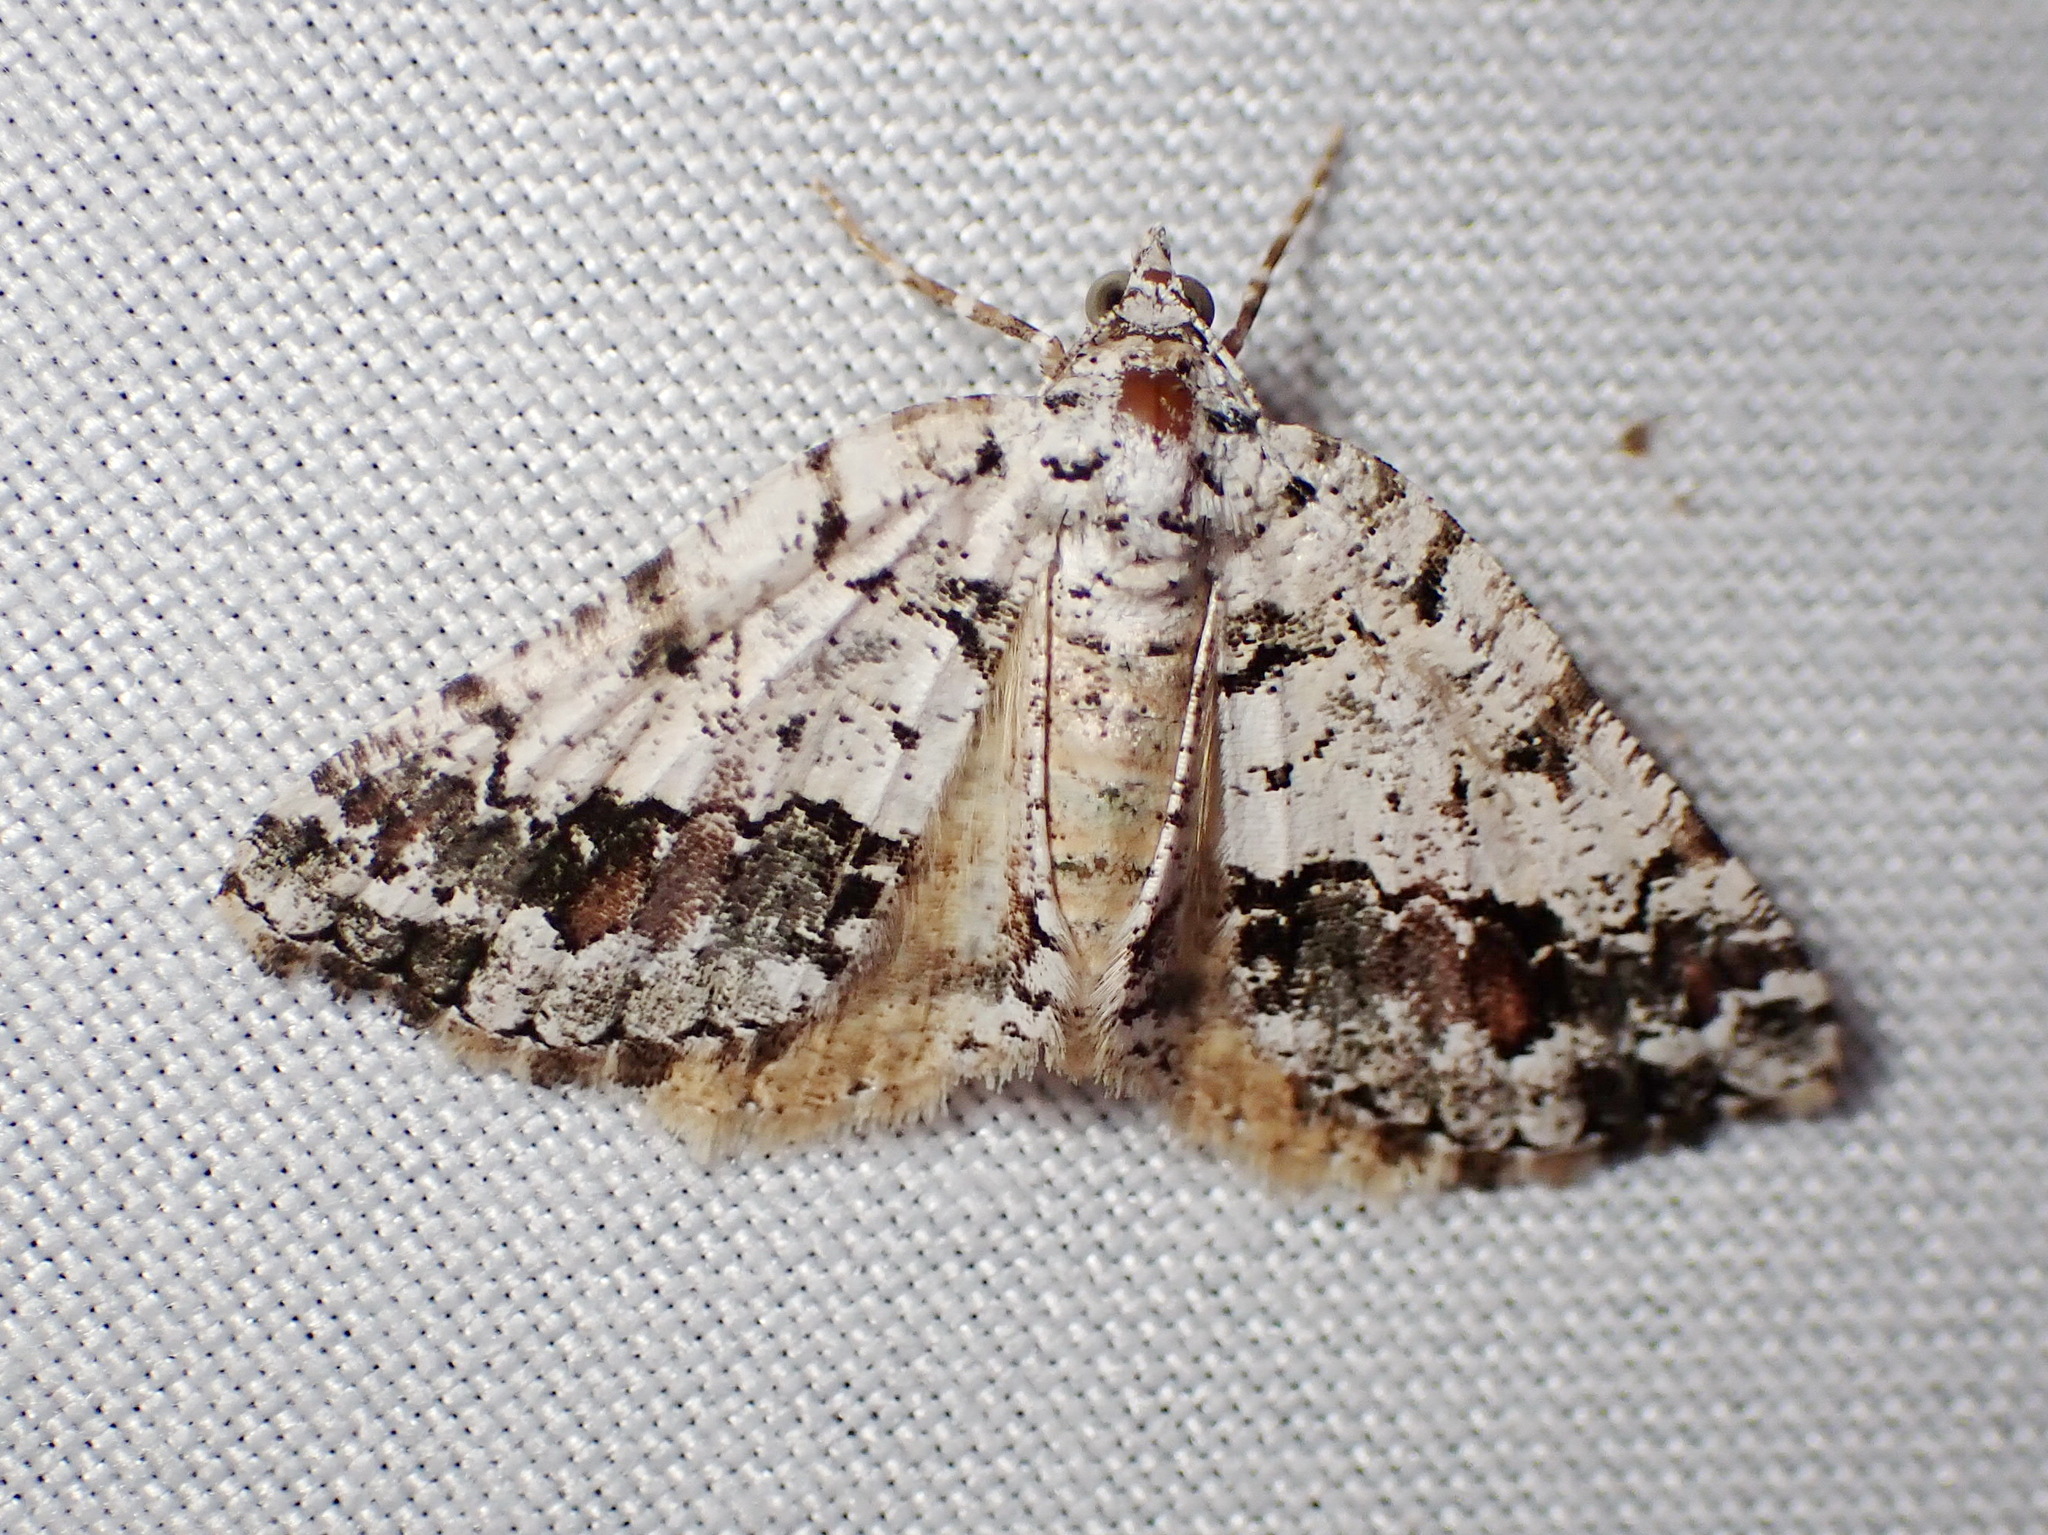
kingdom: Animalia
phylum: Arthropoda
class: Insecta
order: Lepidoptera
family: Geometridae
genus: Macaria
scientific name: Macaria graphidaria
